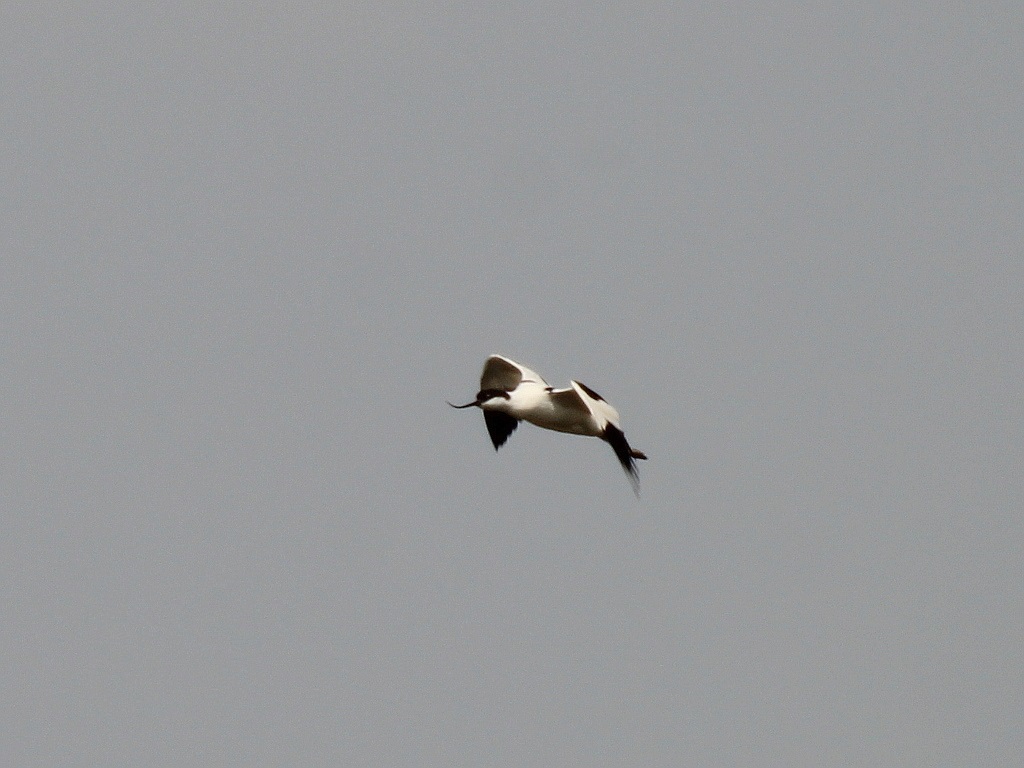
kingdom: Animalia
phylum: Chordata
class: Aves
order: Charadriiformes
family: Recurvirostridae
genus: Recurvirostra
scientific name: Recurvirostra avosetta
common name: Pied avocet
